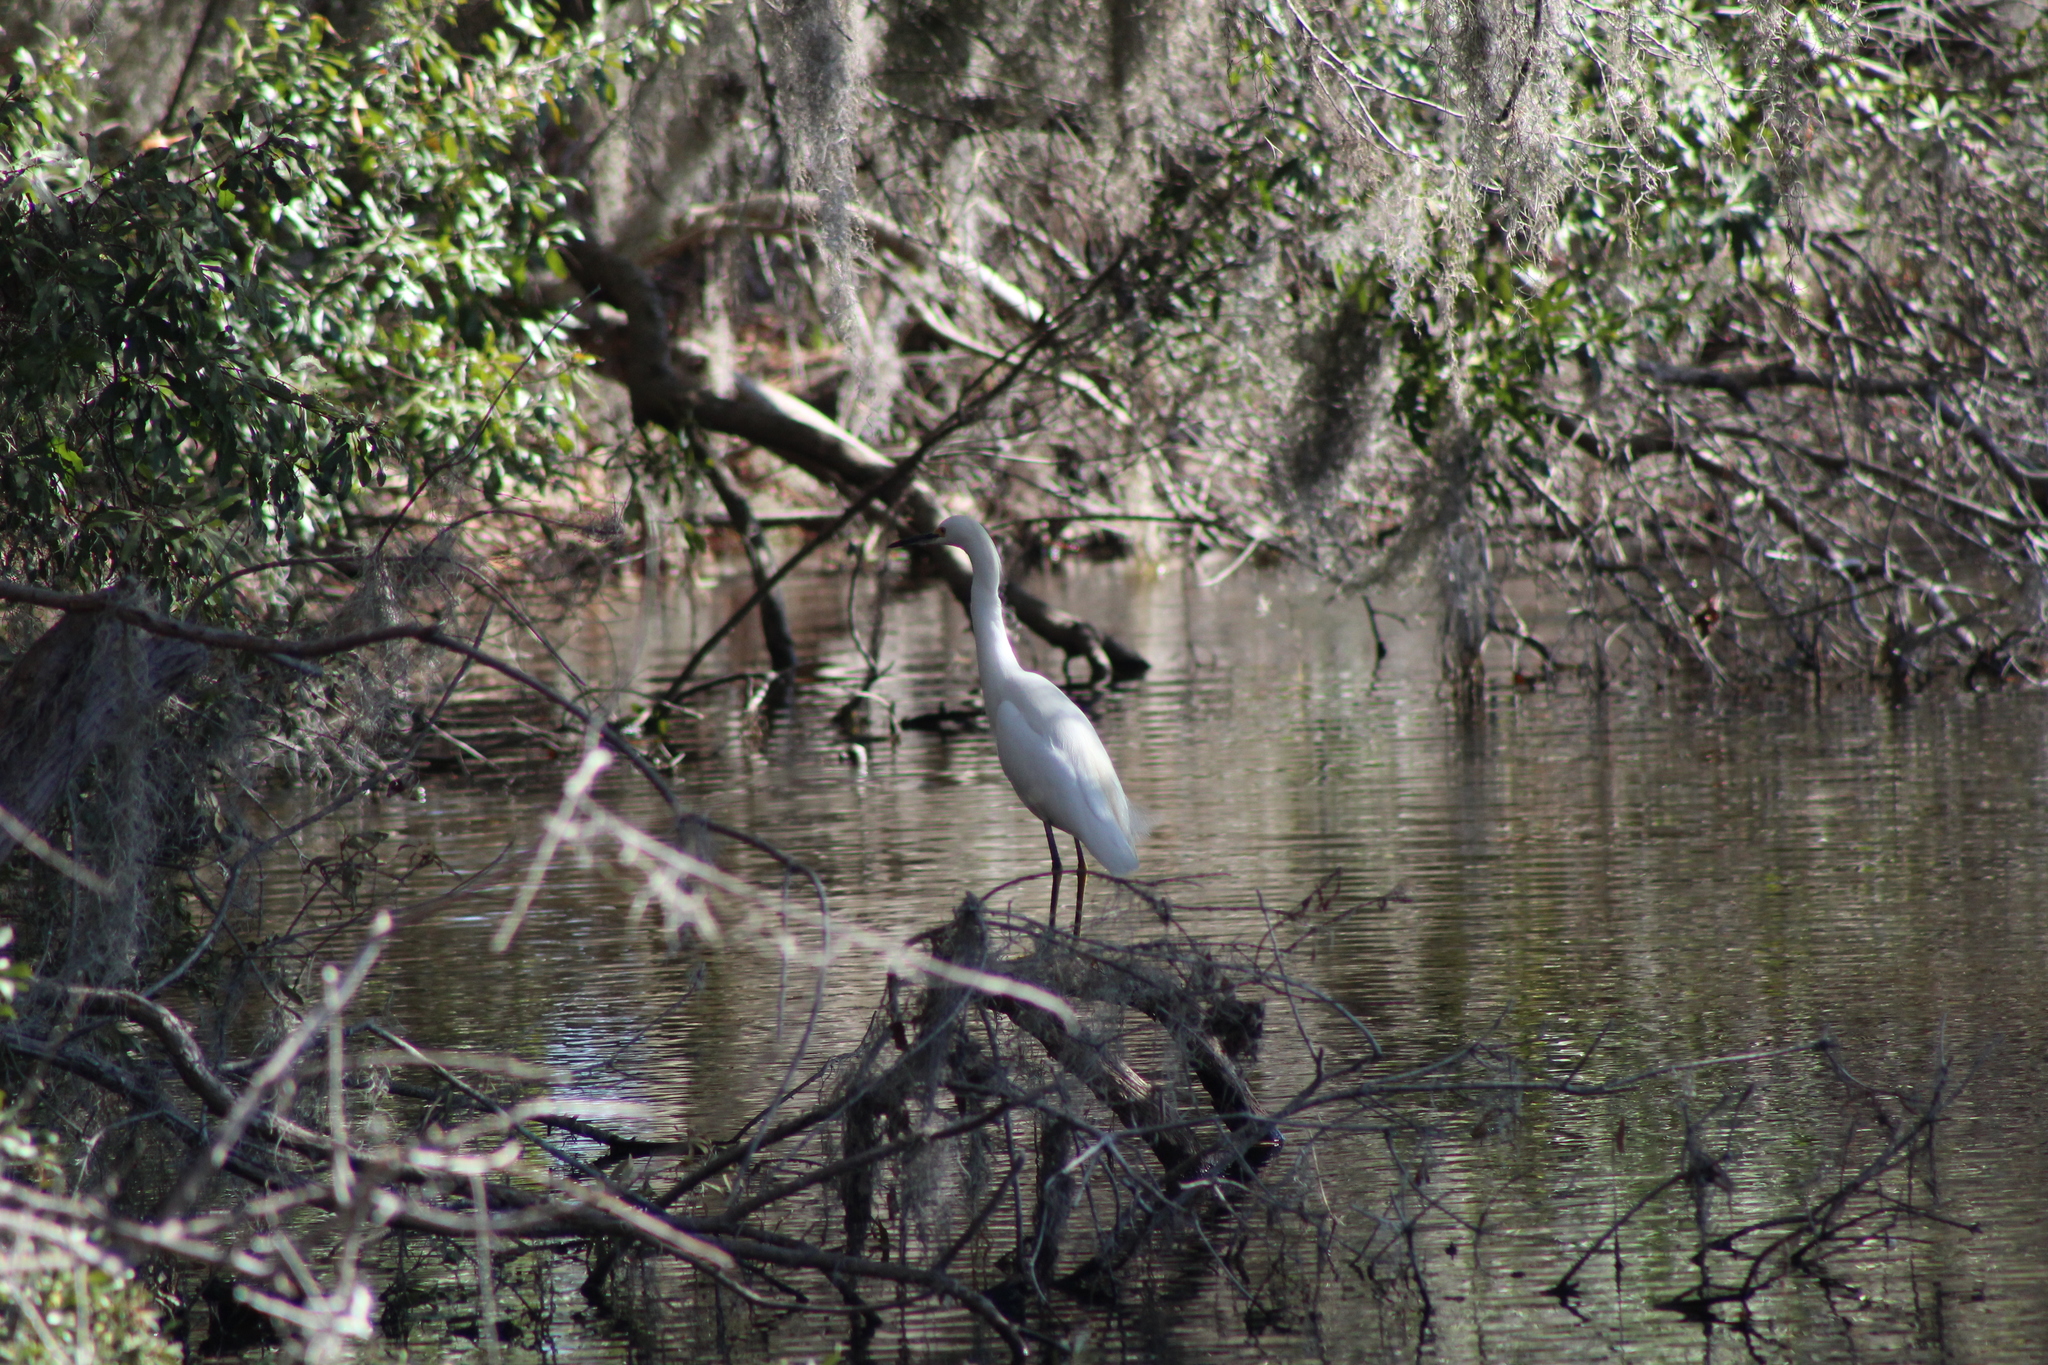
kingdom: Animalia
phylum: Chordata
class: Aves
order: Pelecaniformes
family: Ardeidae
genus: Egretta
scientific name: Egretta thula
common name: Snowy egret
